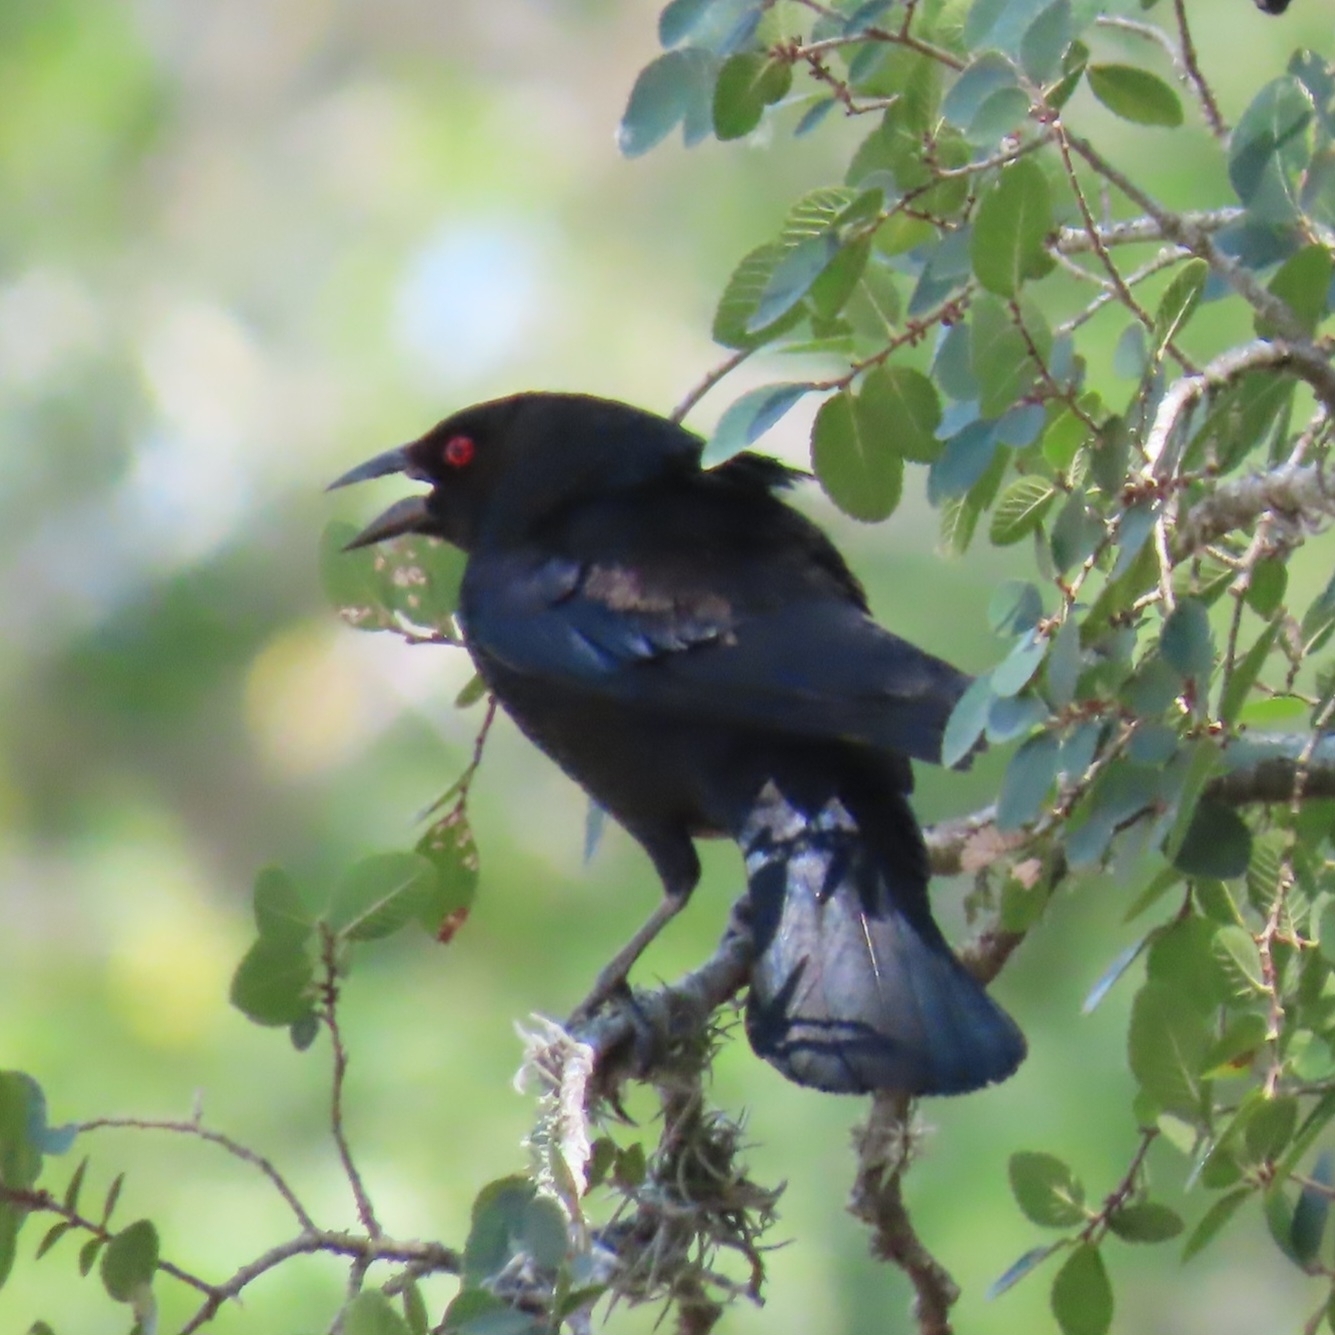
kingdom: Animalia
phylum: Chordata
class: Aves
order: Passeriformes
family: Icteridae
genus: Molothrus
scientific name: Molothrus aeneus
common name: Bronzed cowbird
